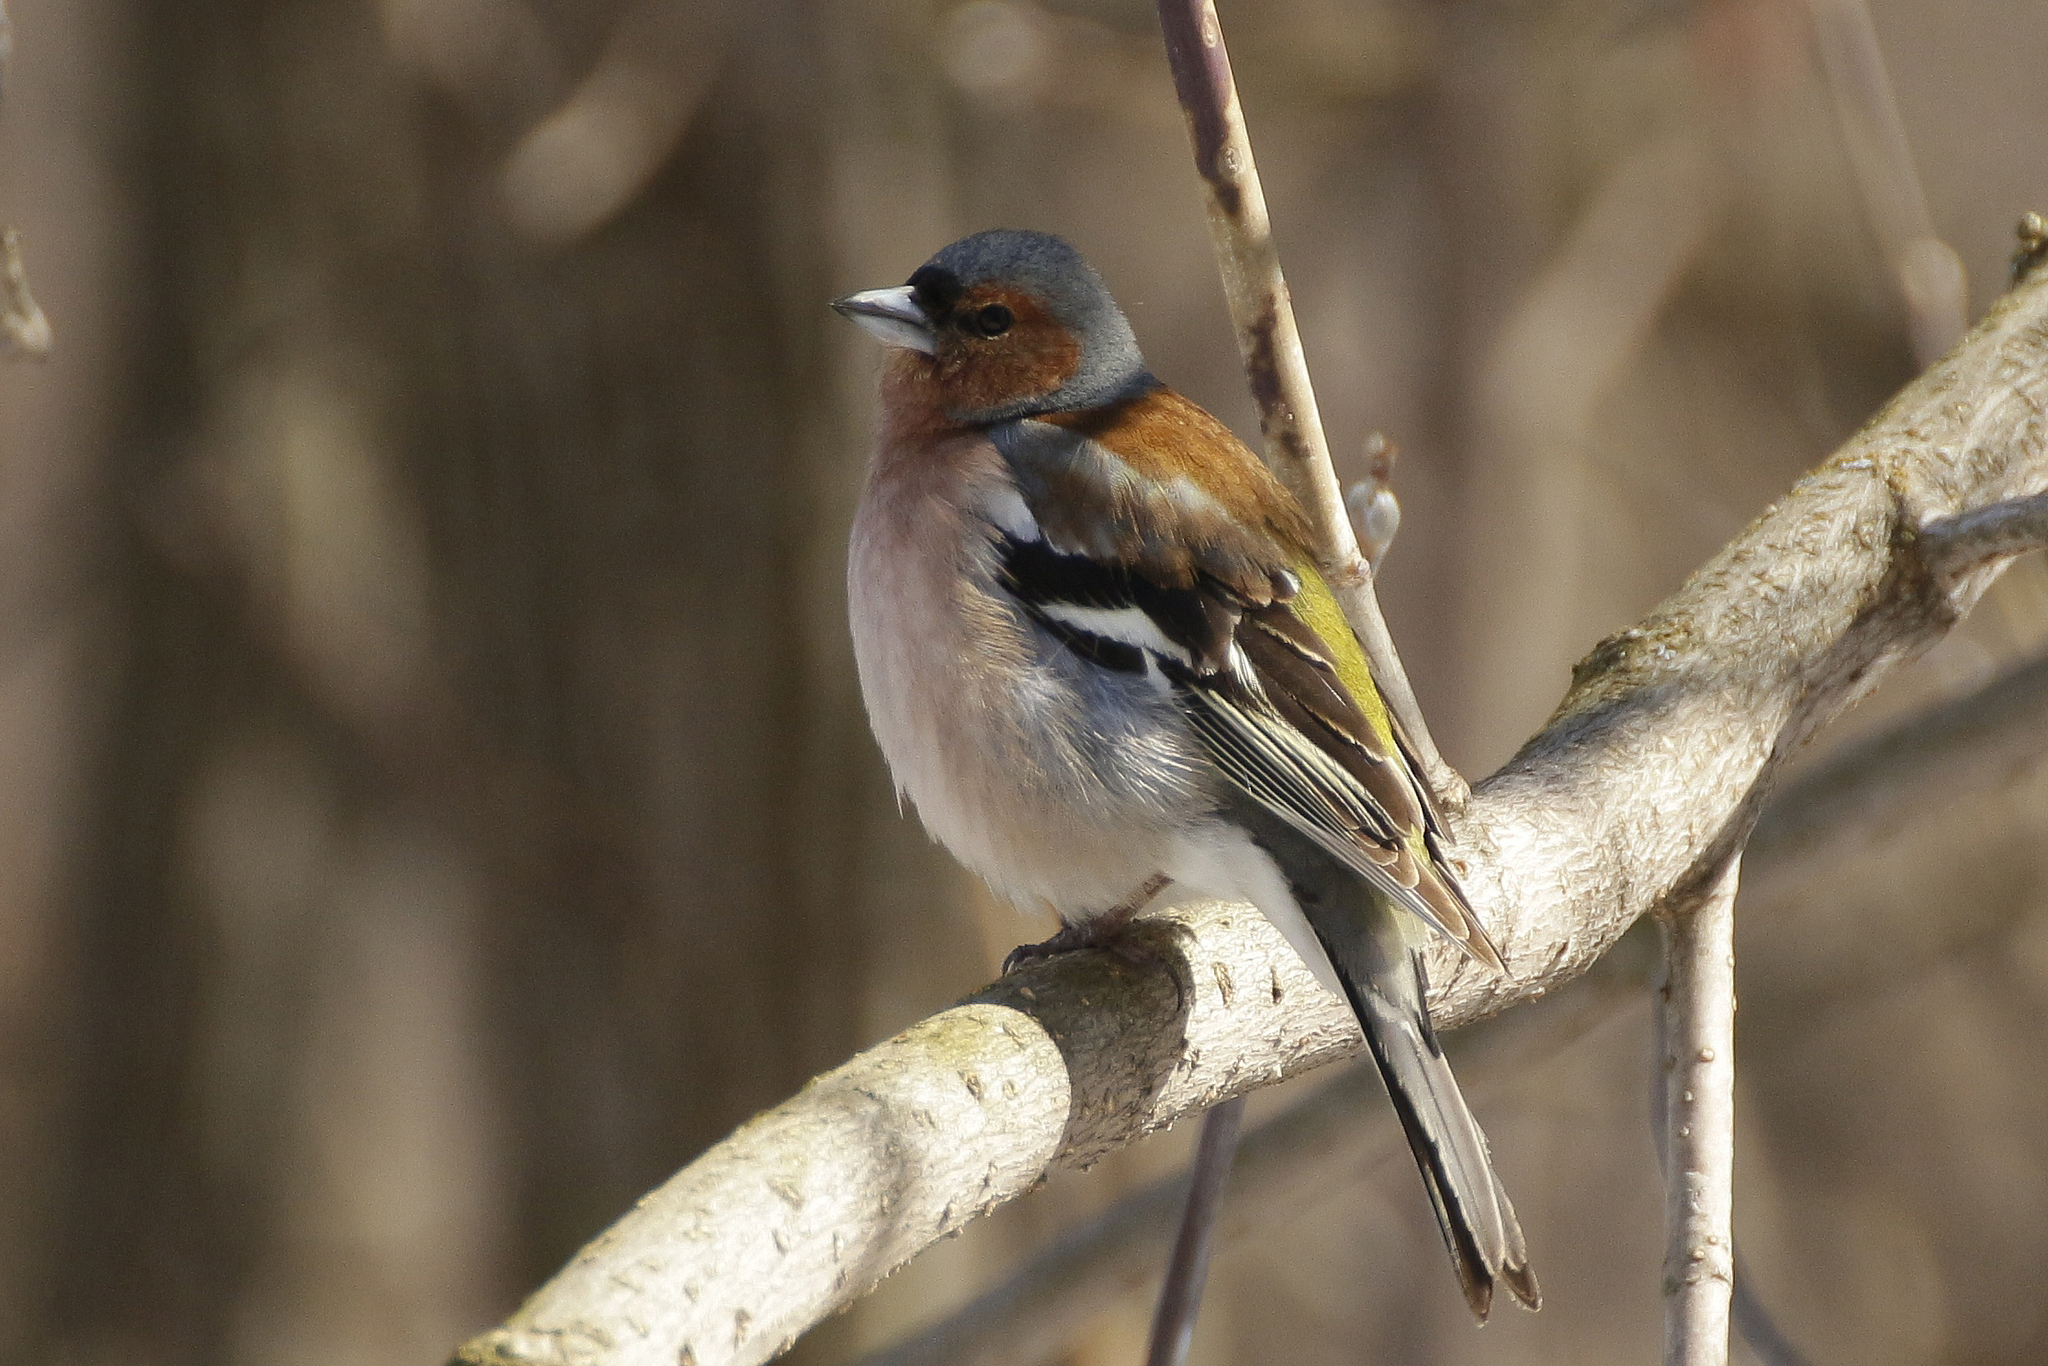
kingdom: Animalia
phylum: Chordata
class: Aves
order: Passeriformes
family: Fringillidae
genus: Fringilla
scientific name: Fringilla coelebs
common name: Common chaffinch
